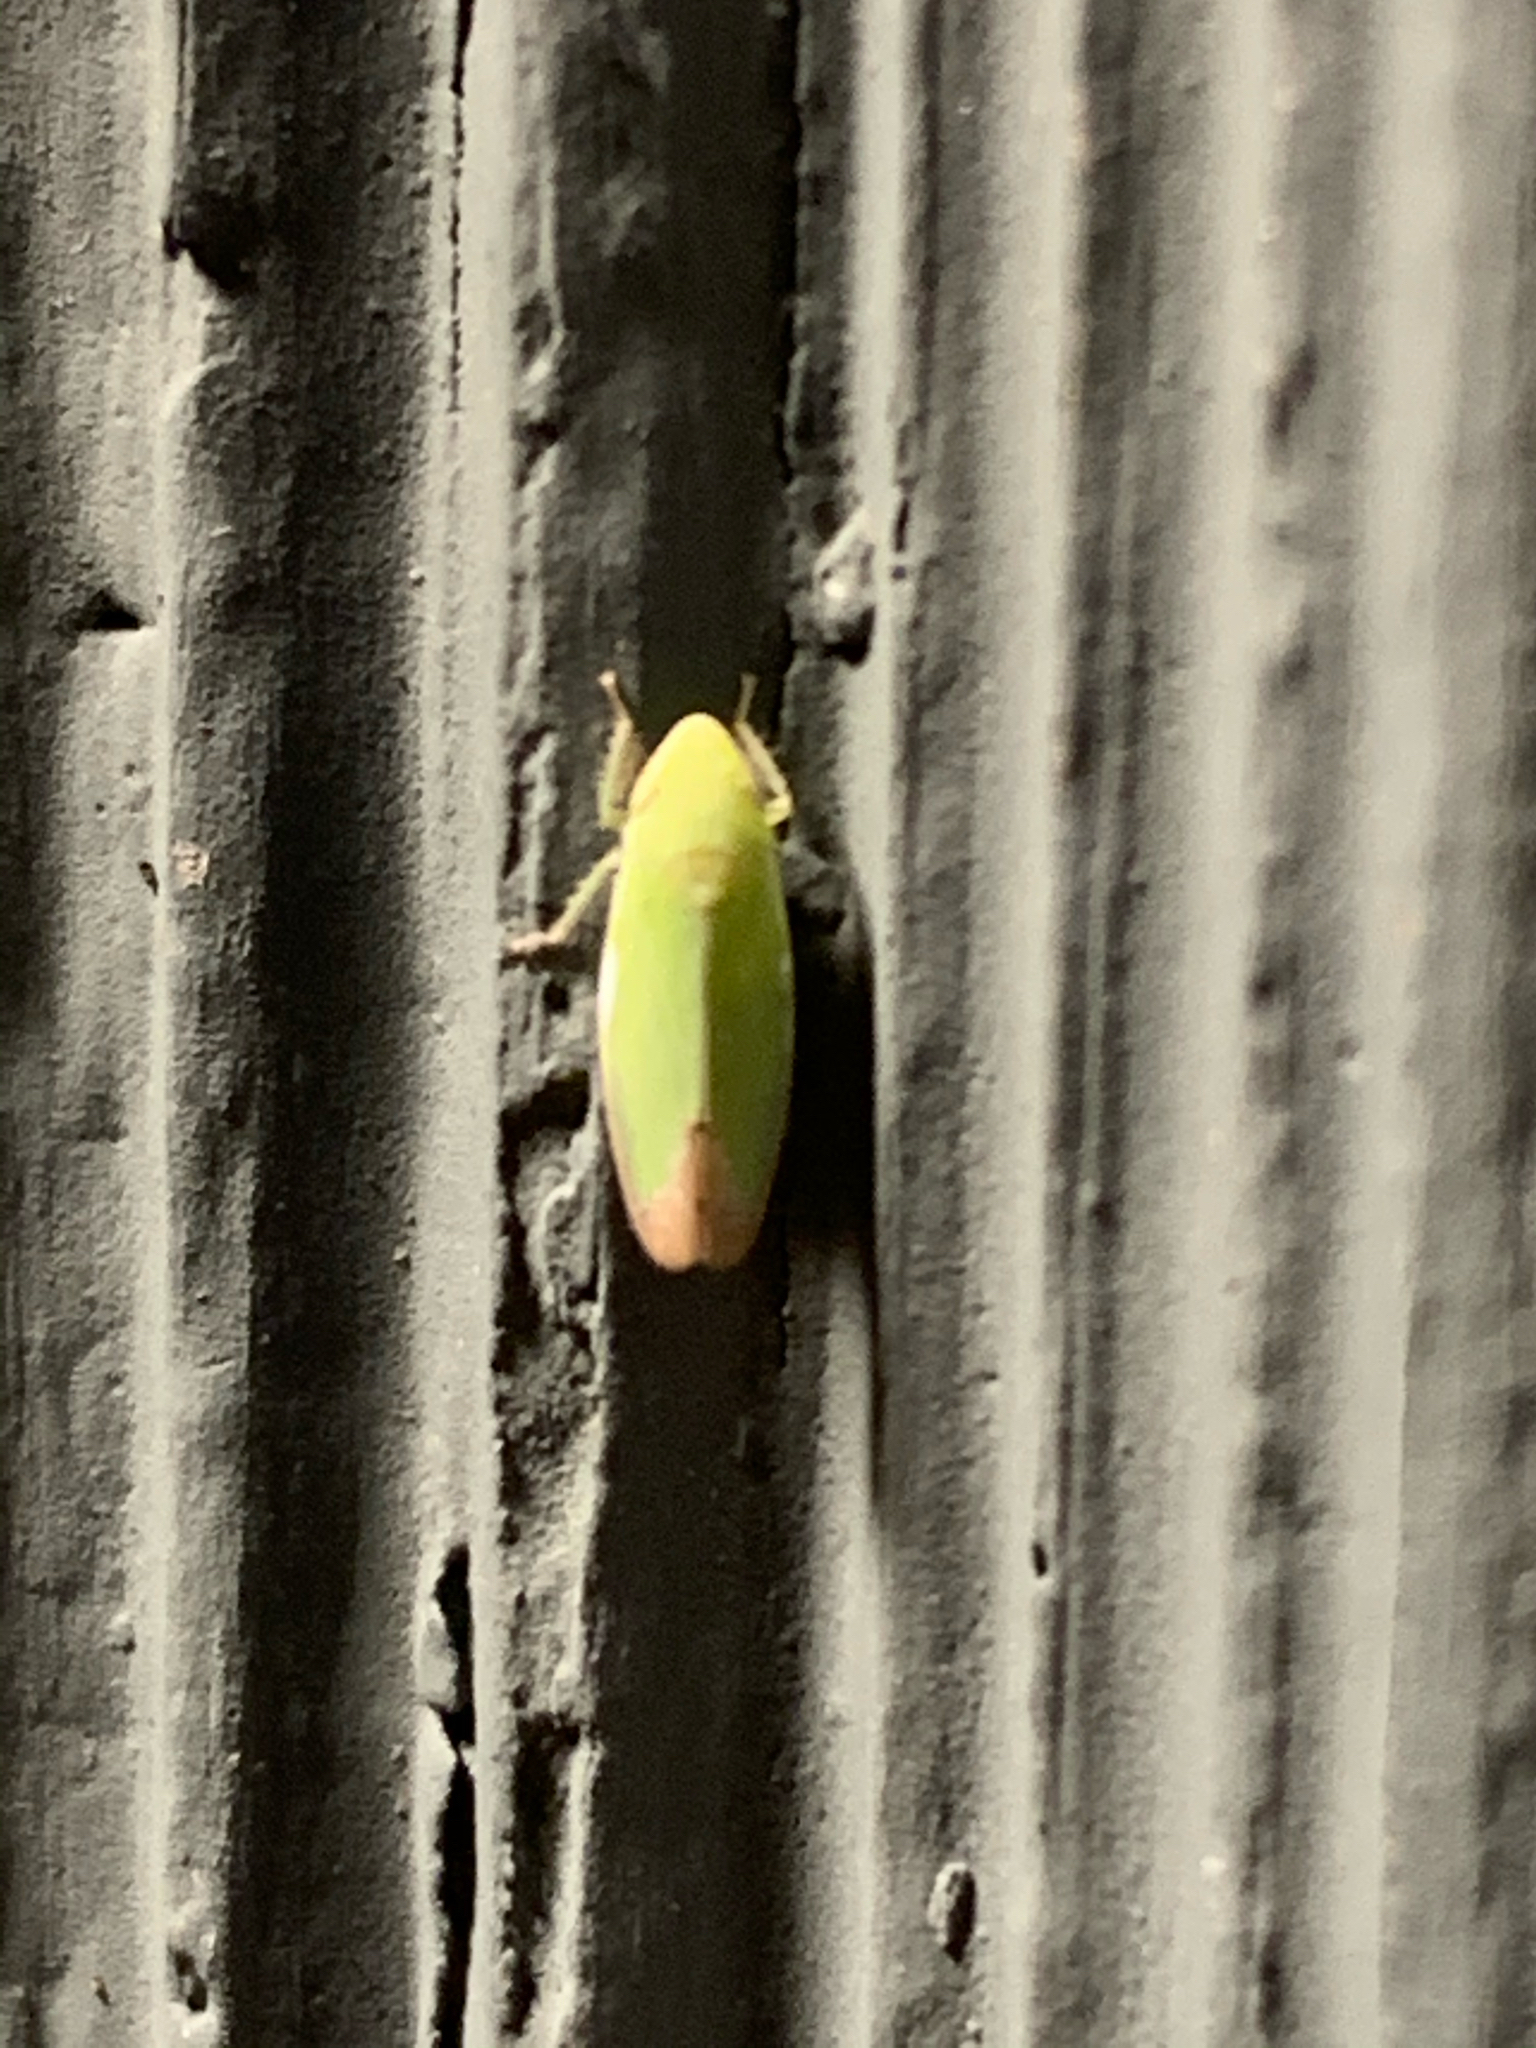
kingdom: Animalia
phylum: Arthropoda
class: Insecta
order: Hemiptera
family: Cicadellidae
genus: Memnonia
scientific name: Memnonia flavida
